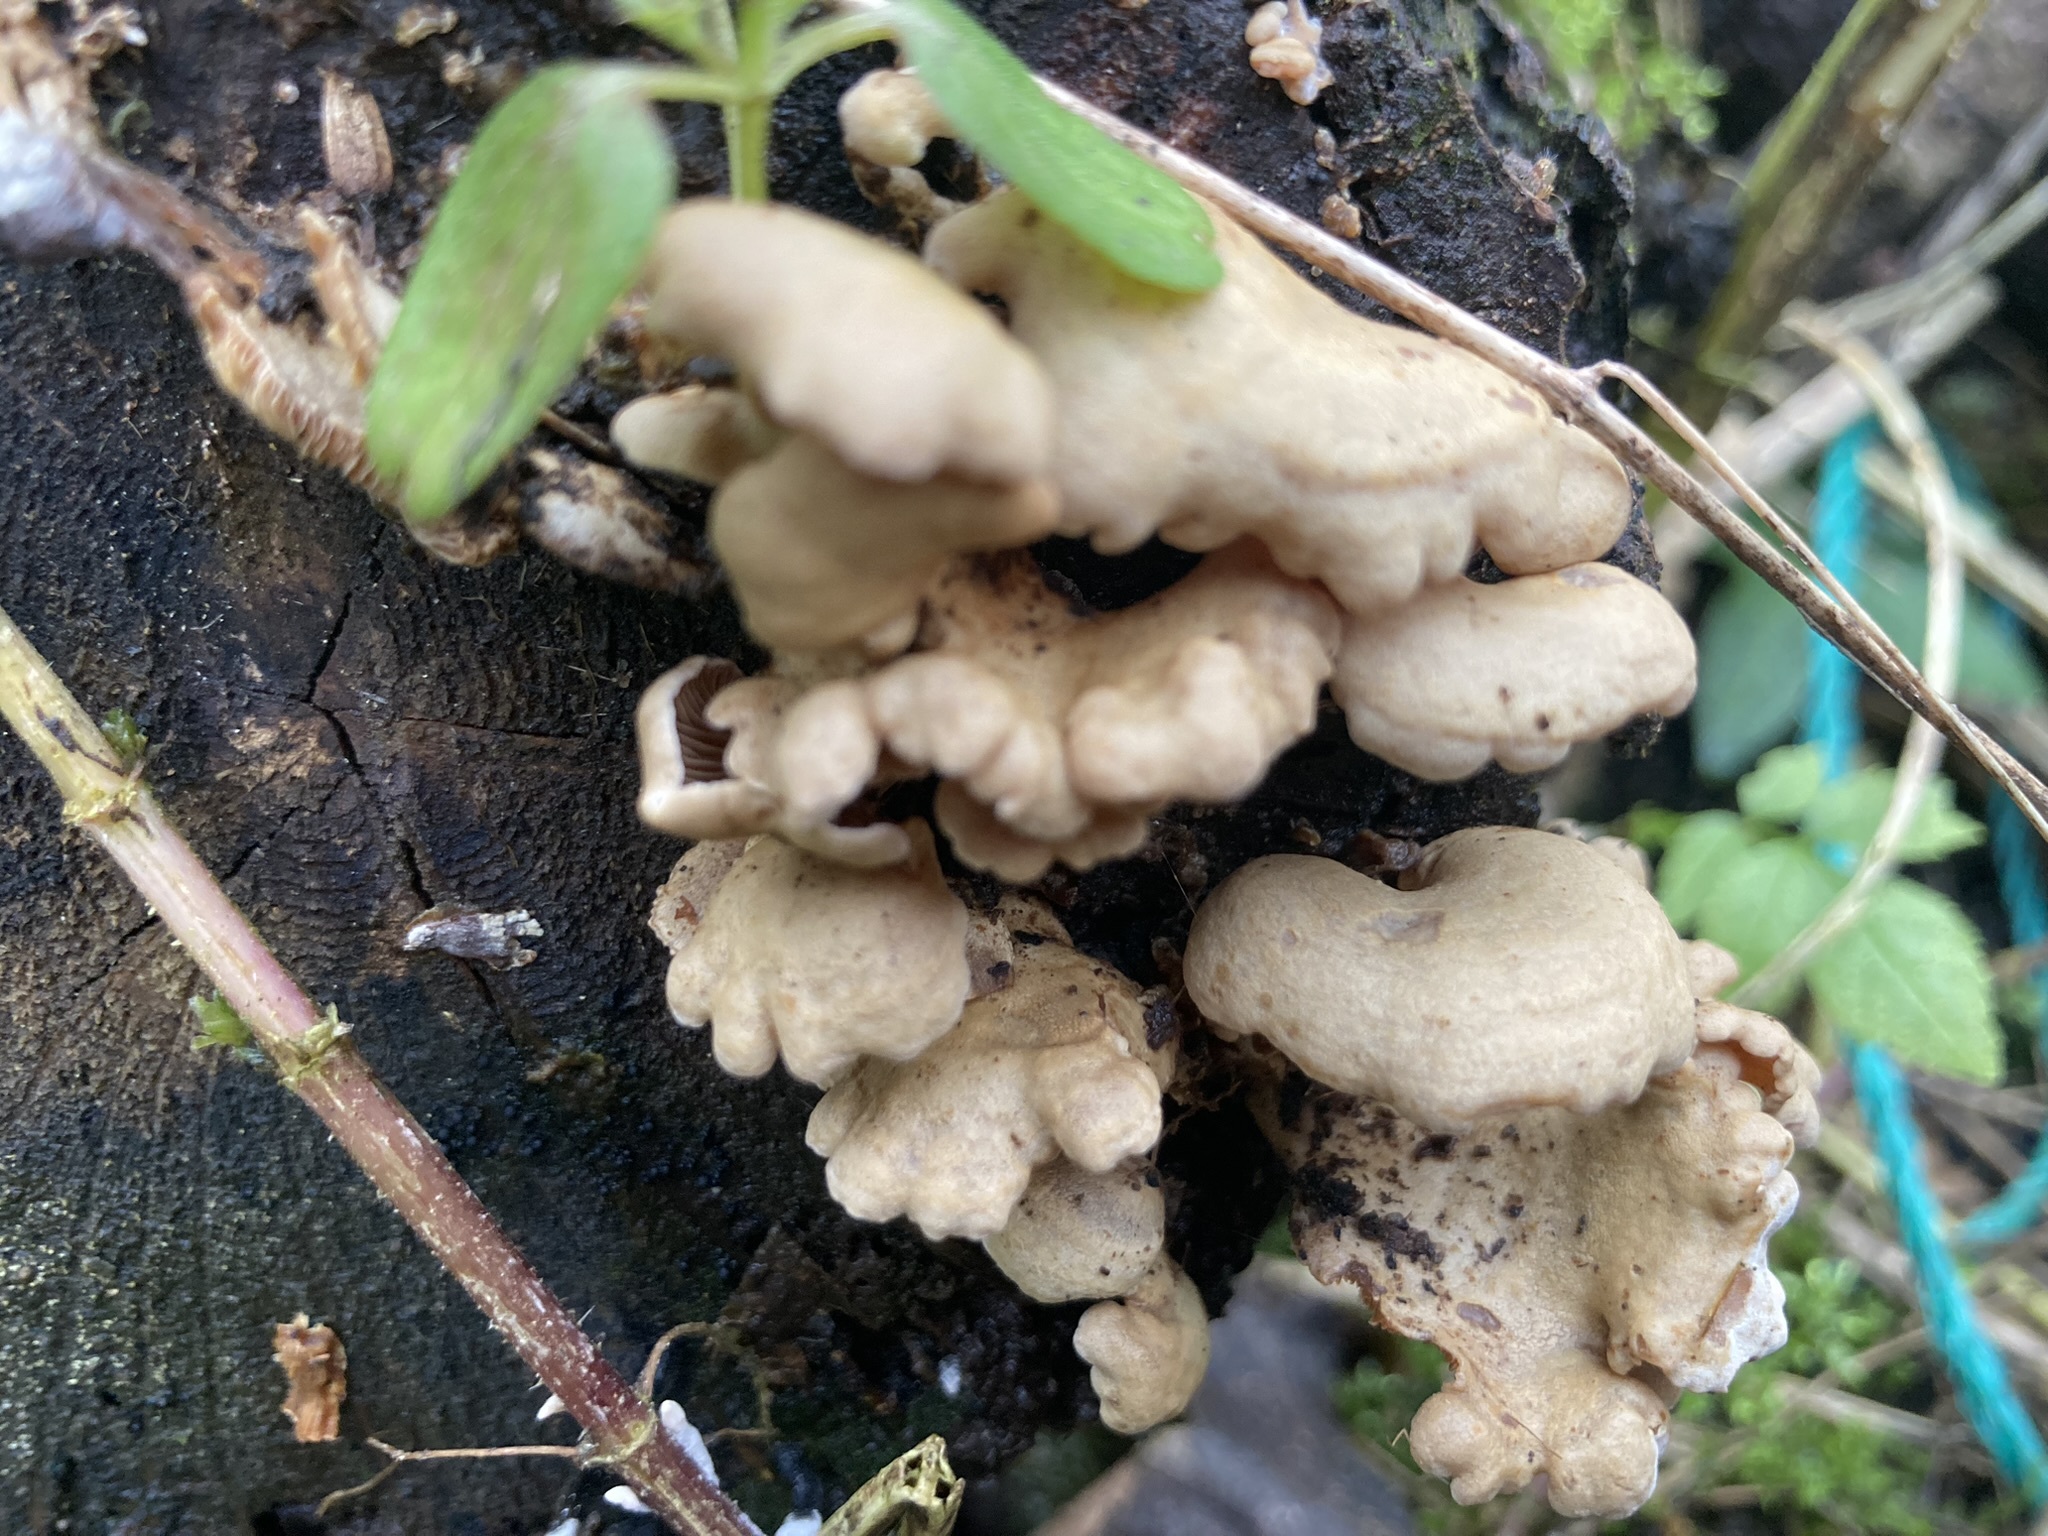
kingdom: Fungi
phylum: Basidiomycota
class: Agaricomycetes
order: Agaricales
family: Mycenaceae
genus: Panellus
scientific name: Panellus stipticus
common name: Bitter oysterling
